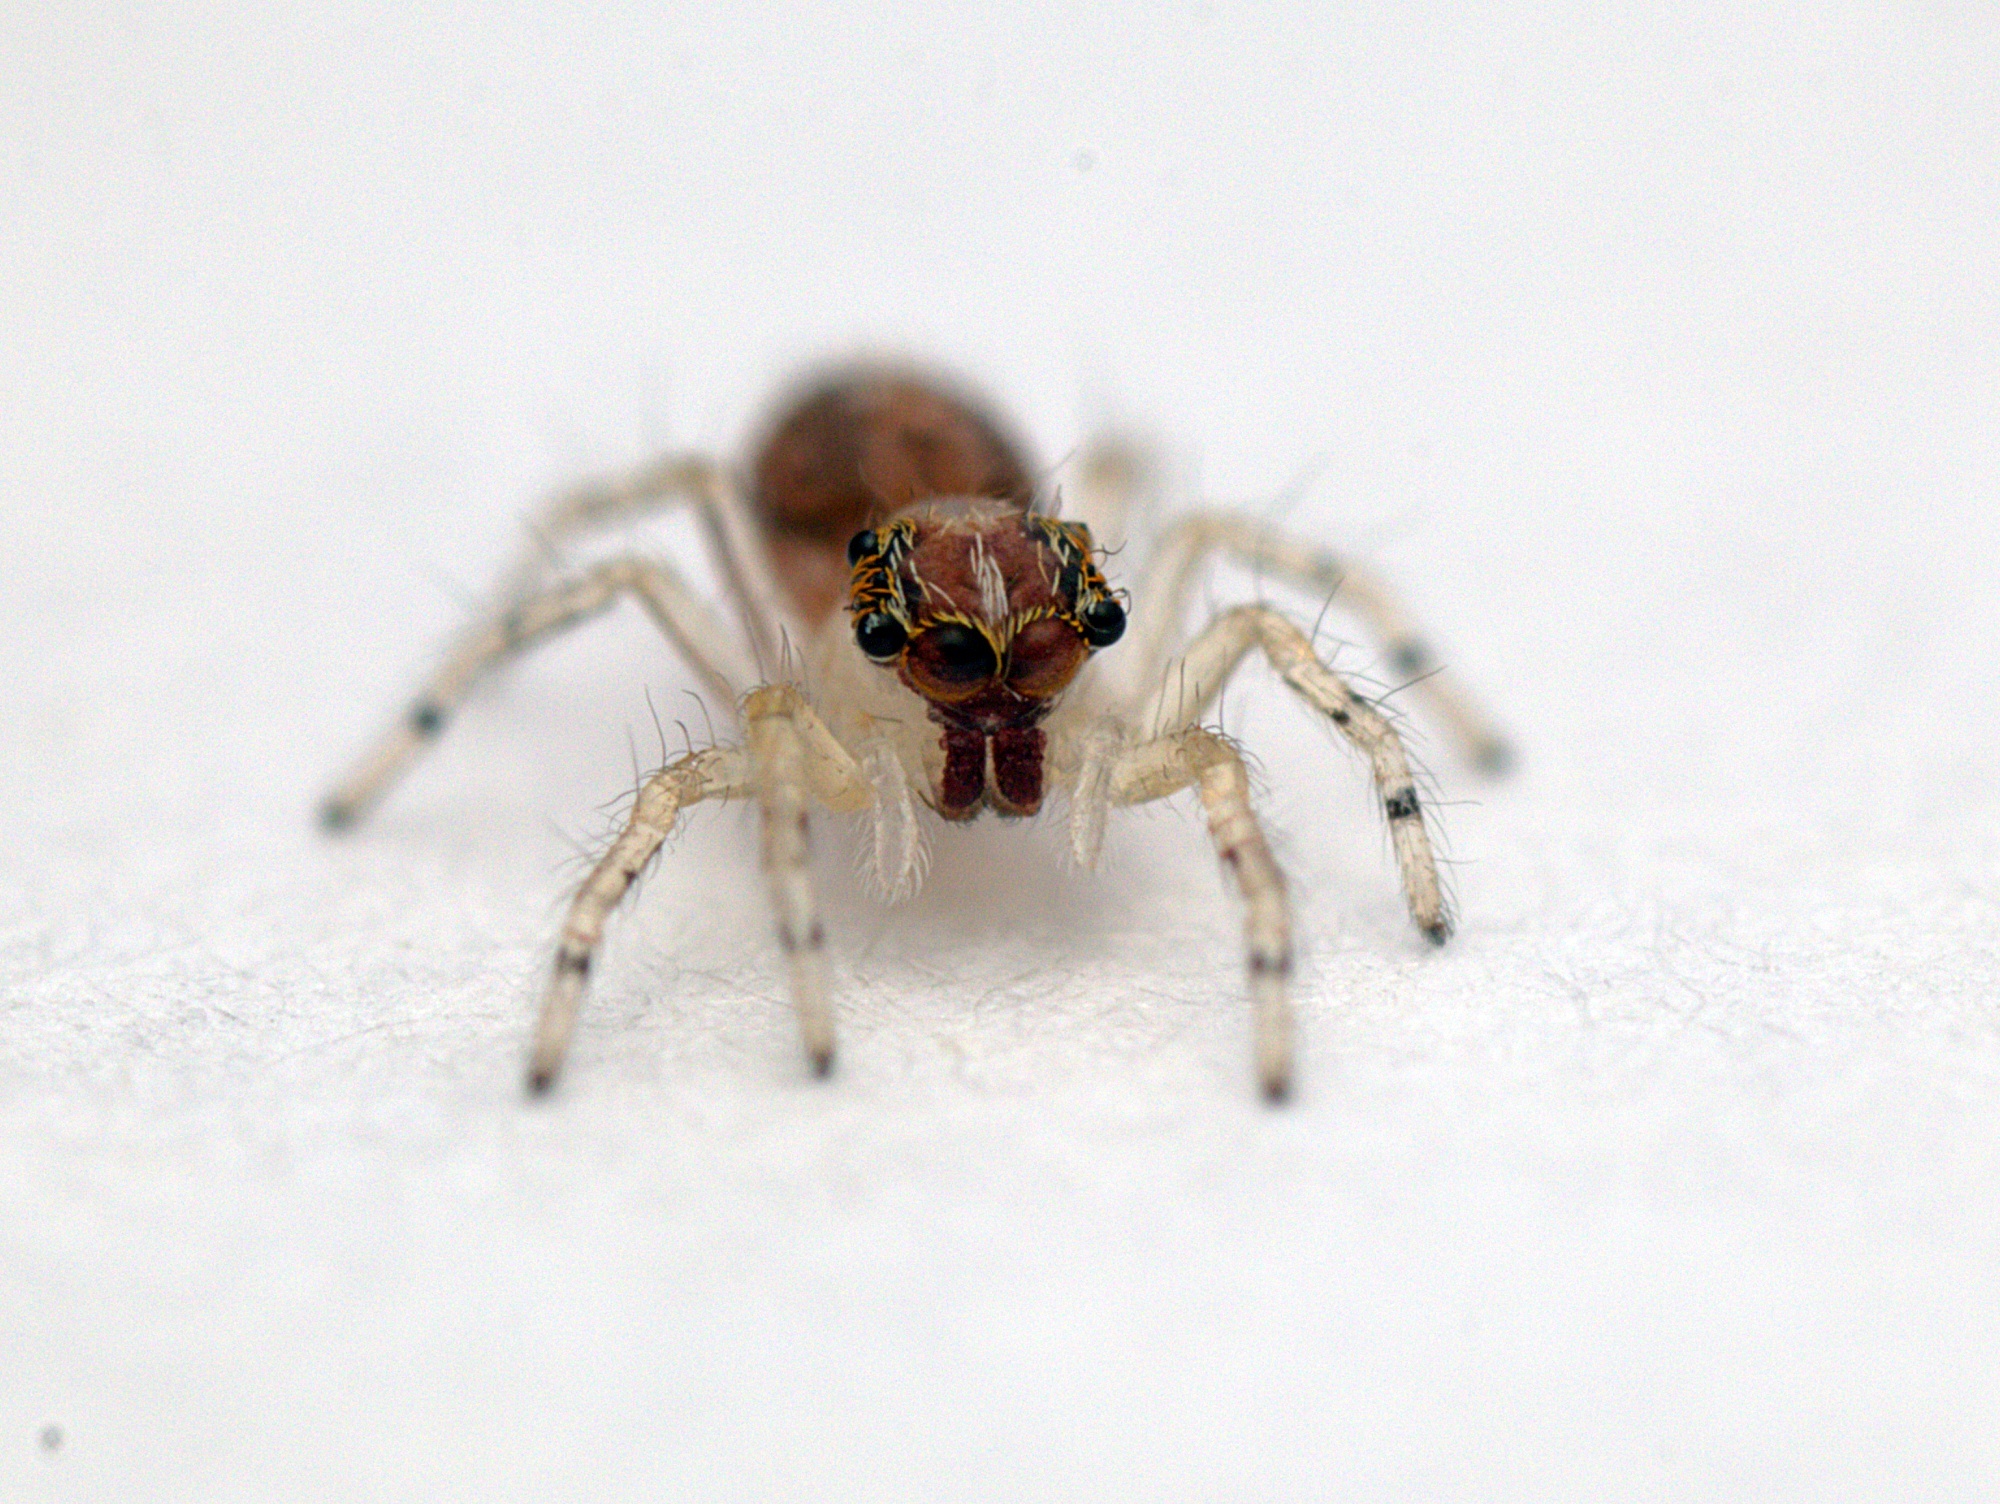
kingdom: Animalia
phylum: Arthropoda
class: Arachnida
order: Araneae
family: Salticidae
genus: Helpis
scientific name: Helpis minitabunda
